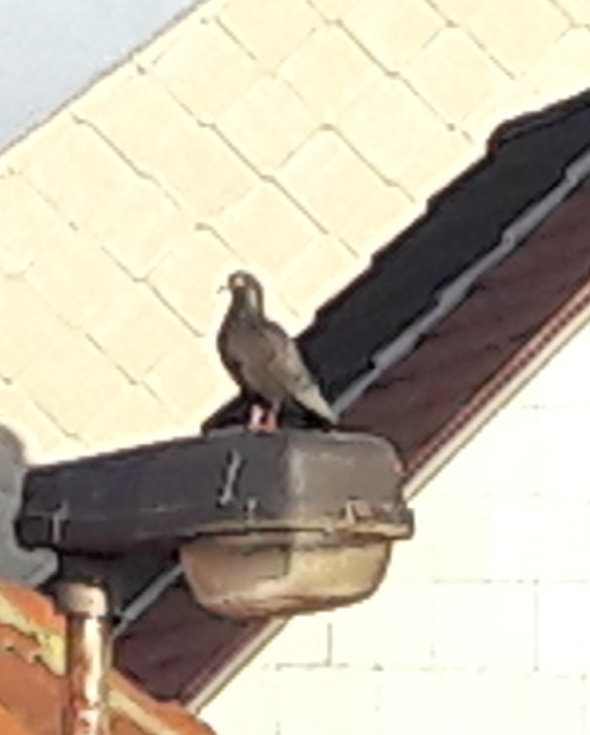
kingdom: Animalia
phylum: Chordata
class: Aves
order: Columbiformes
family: Columbidae
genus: Columba
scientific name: Columba livia
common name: Rock pigeon
